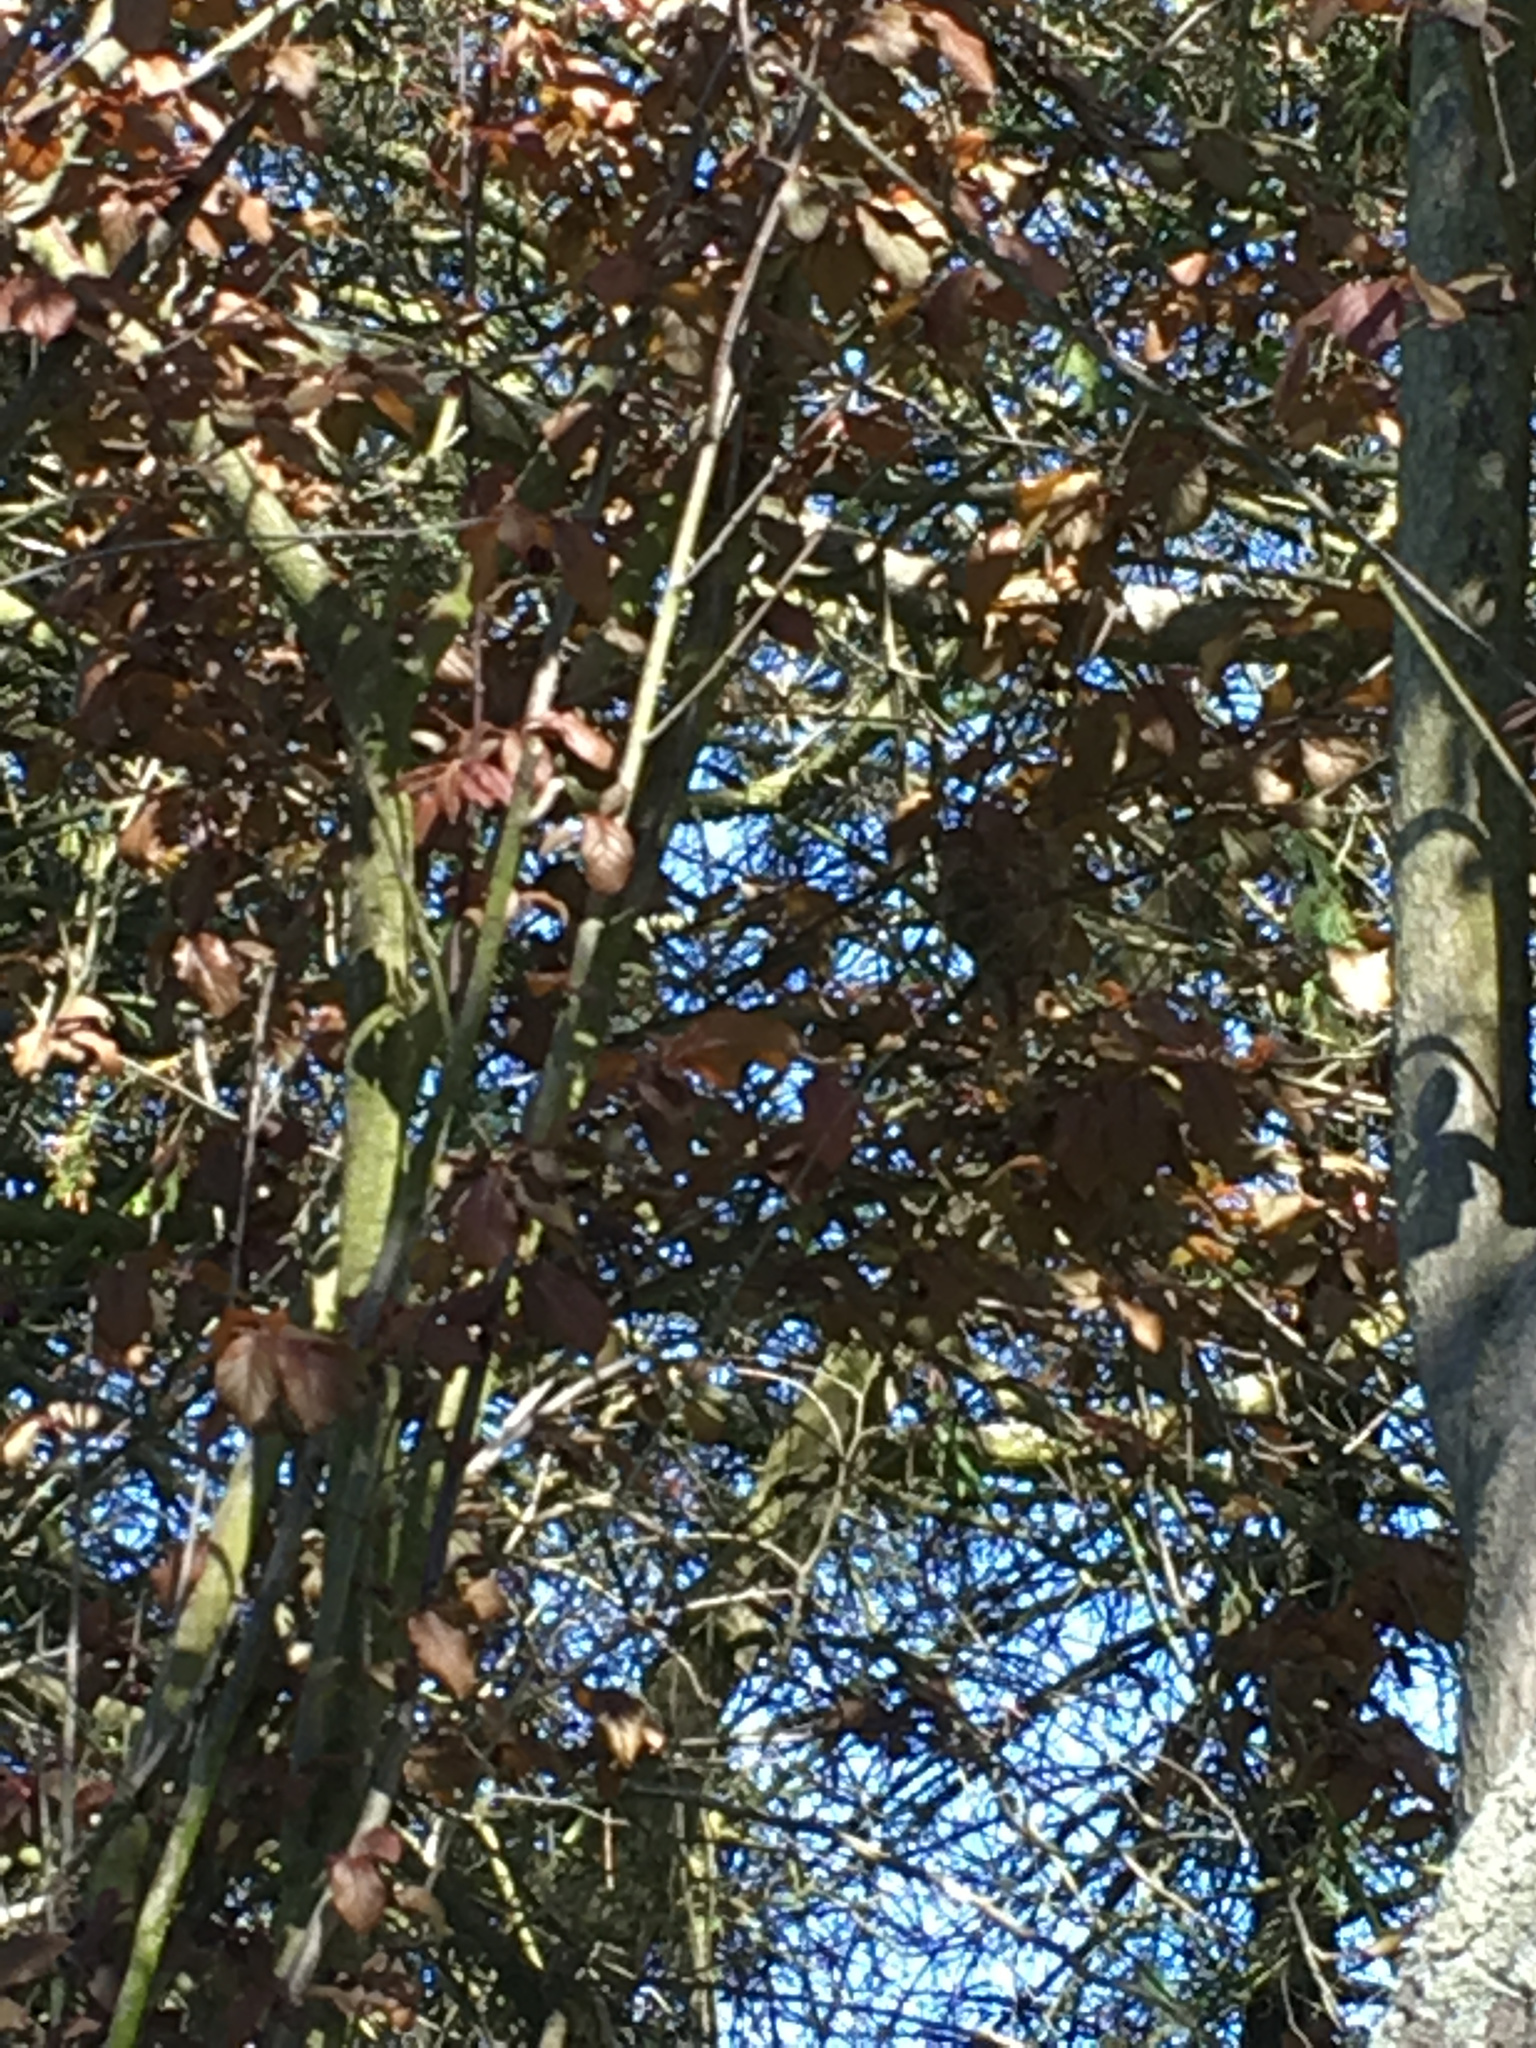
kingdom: Animalia
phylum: Chordata
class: Aves
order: Passeriformes
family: Rhipiduridae
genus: Rhipidura
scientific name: Rhipidura fuliginosa
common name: New zealand fantail
